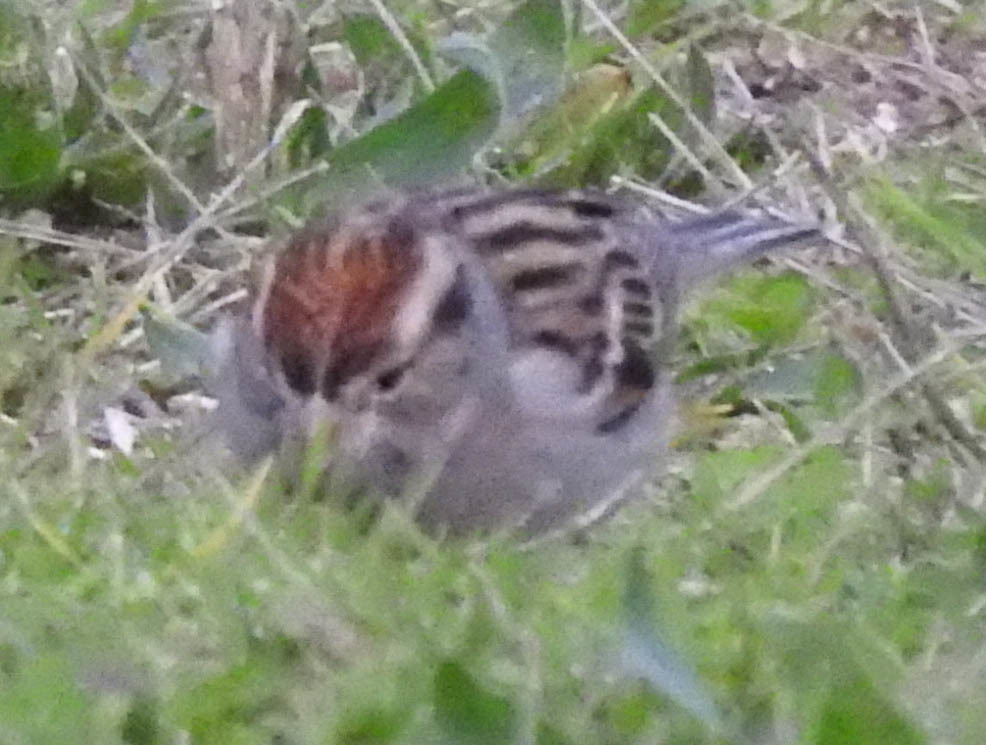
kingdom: Animalia
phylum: Chordata
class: Aves
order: Passeriformes
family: Passerellidae
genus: Spizella
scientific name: Spizella passerina
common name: Chipping sparrow
